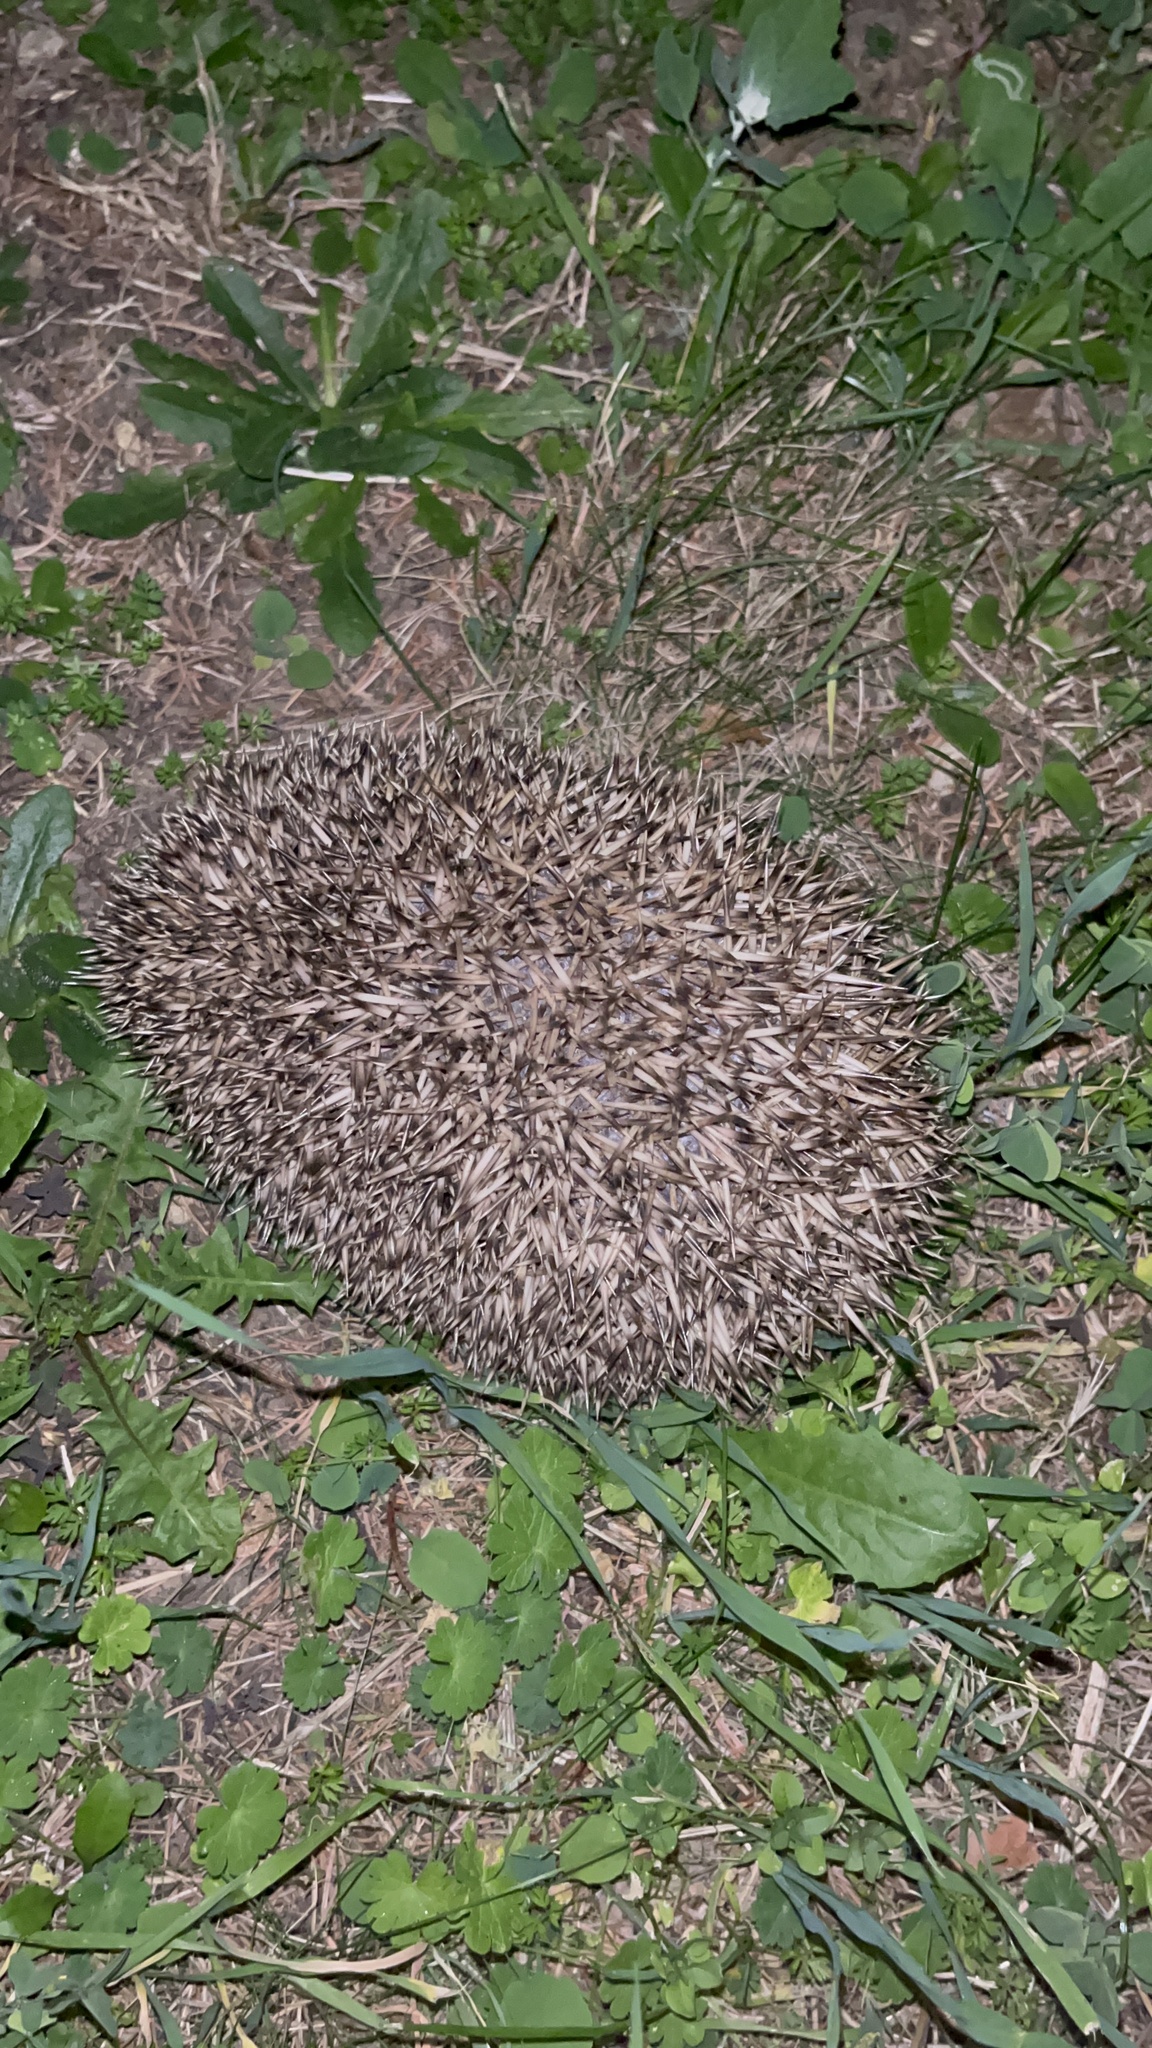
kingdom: Animalia
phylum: Chordata
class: Mammalia
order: Erinaceomorpha
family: Erinaceidae
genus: Erinaceus
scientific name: Erinaceus europaeus
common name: West european hedgehog
